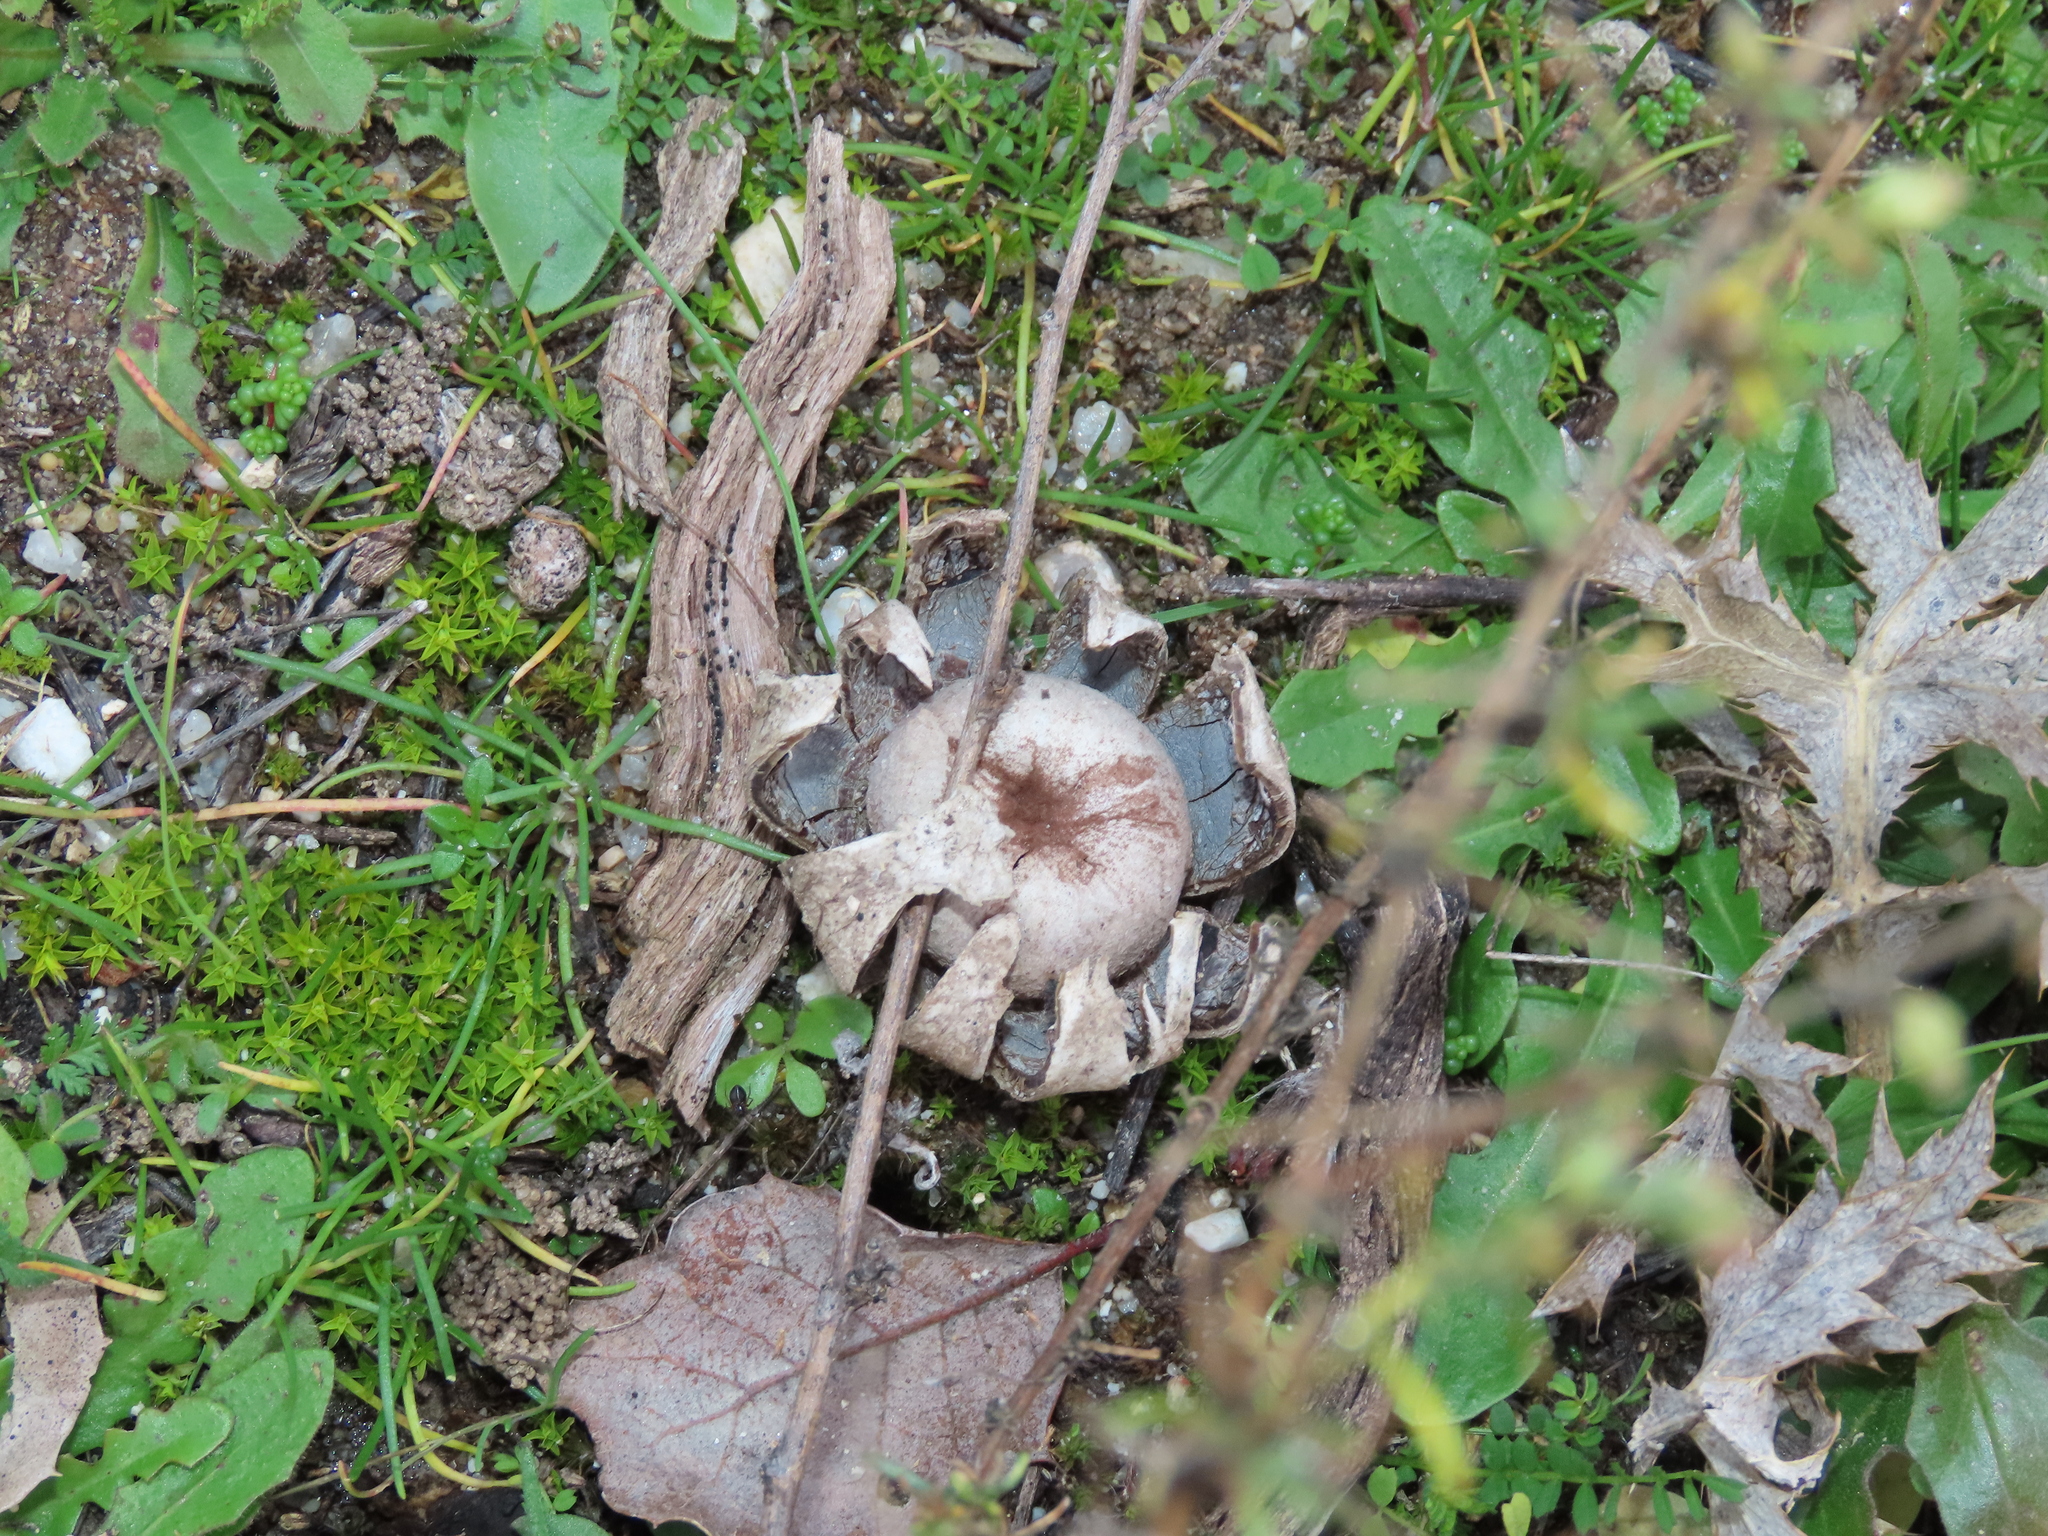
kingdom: Fungi
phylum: Basidiomycota
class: Agaricomycetes
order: Boletales
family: Diplocystidiaceae
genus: Astraeus
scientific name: Astraeus hygrometricus
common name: Barometer earthstar
